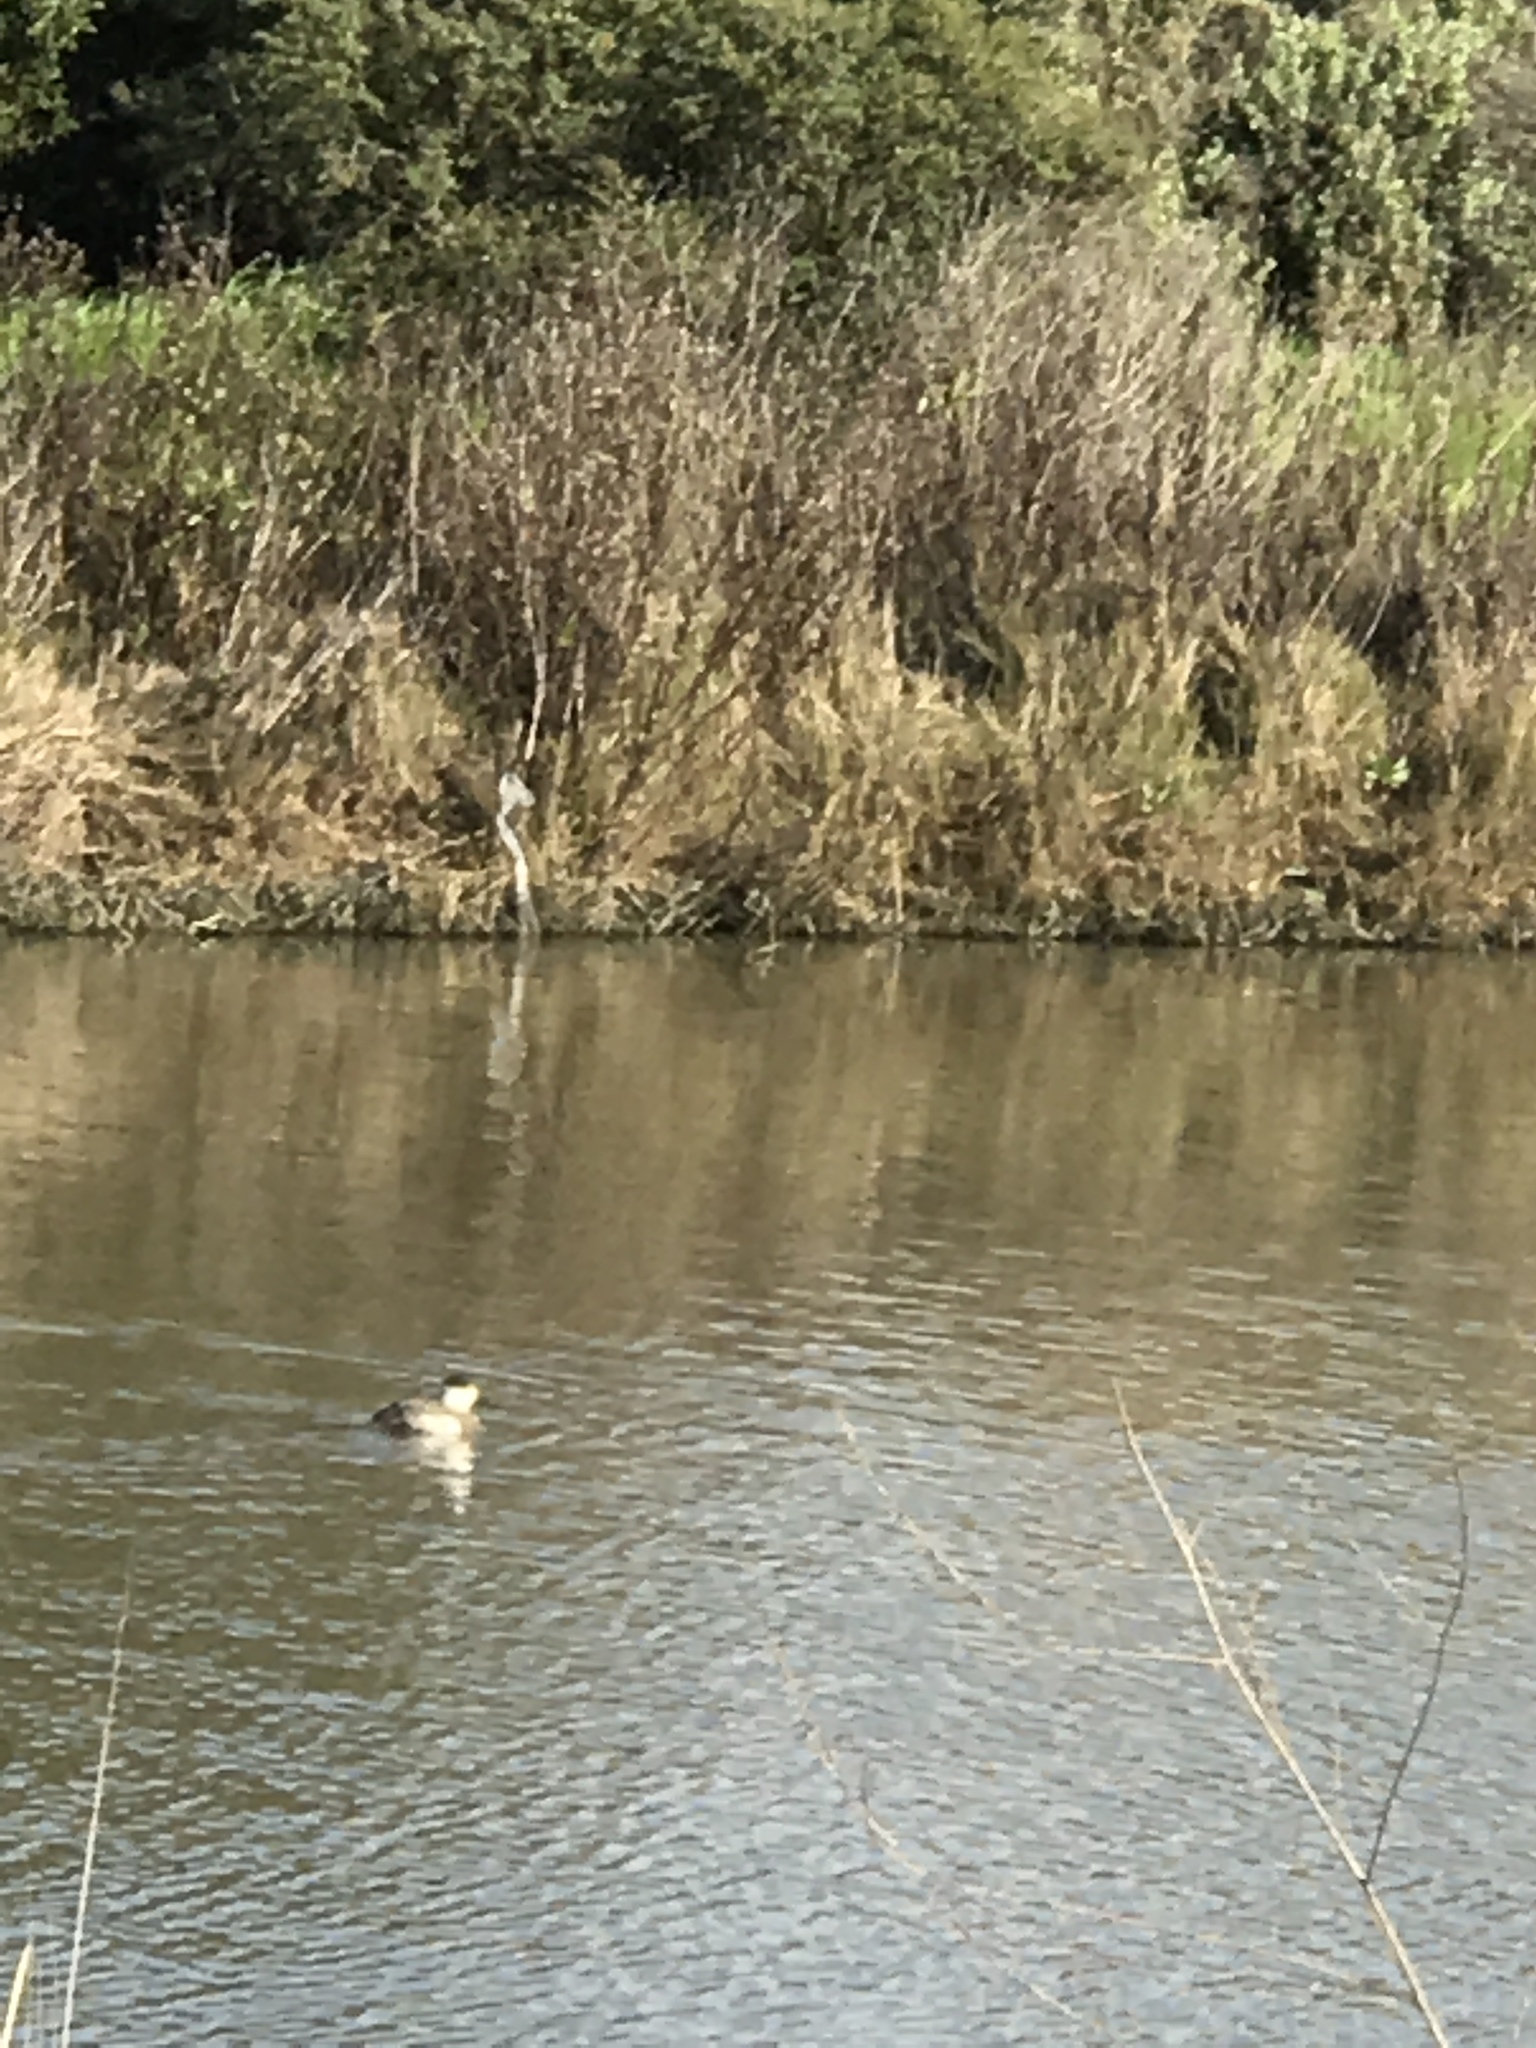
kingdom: Animalia
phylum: Chordata
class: Aves
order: Anseriformes
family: Anatidae
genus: Oxyura
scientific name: Oxyura jamaicensis
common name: Ruddy duck
